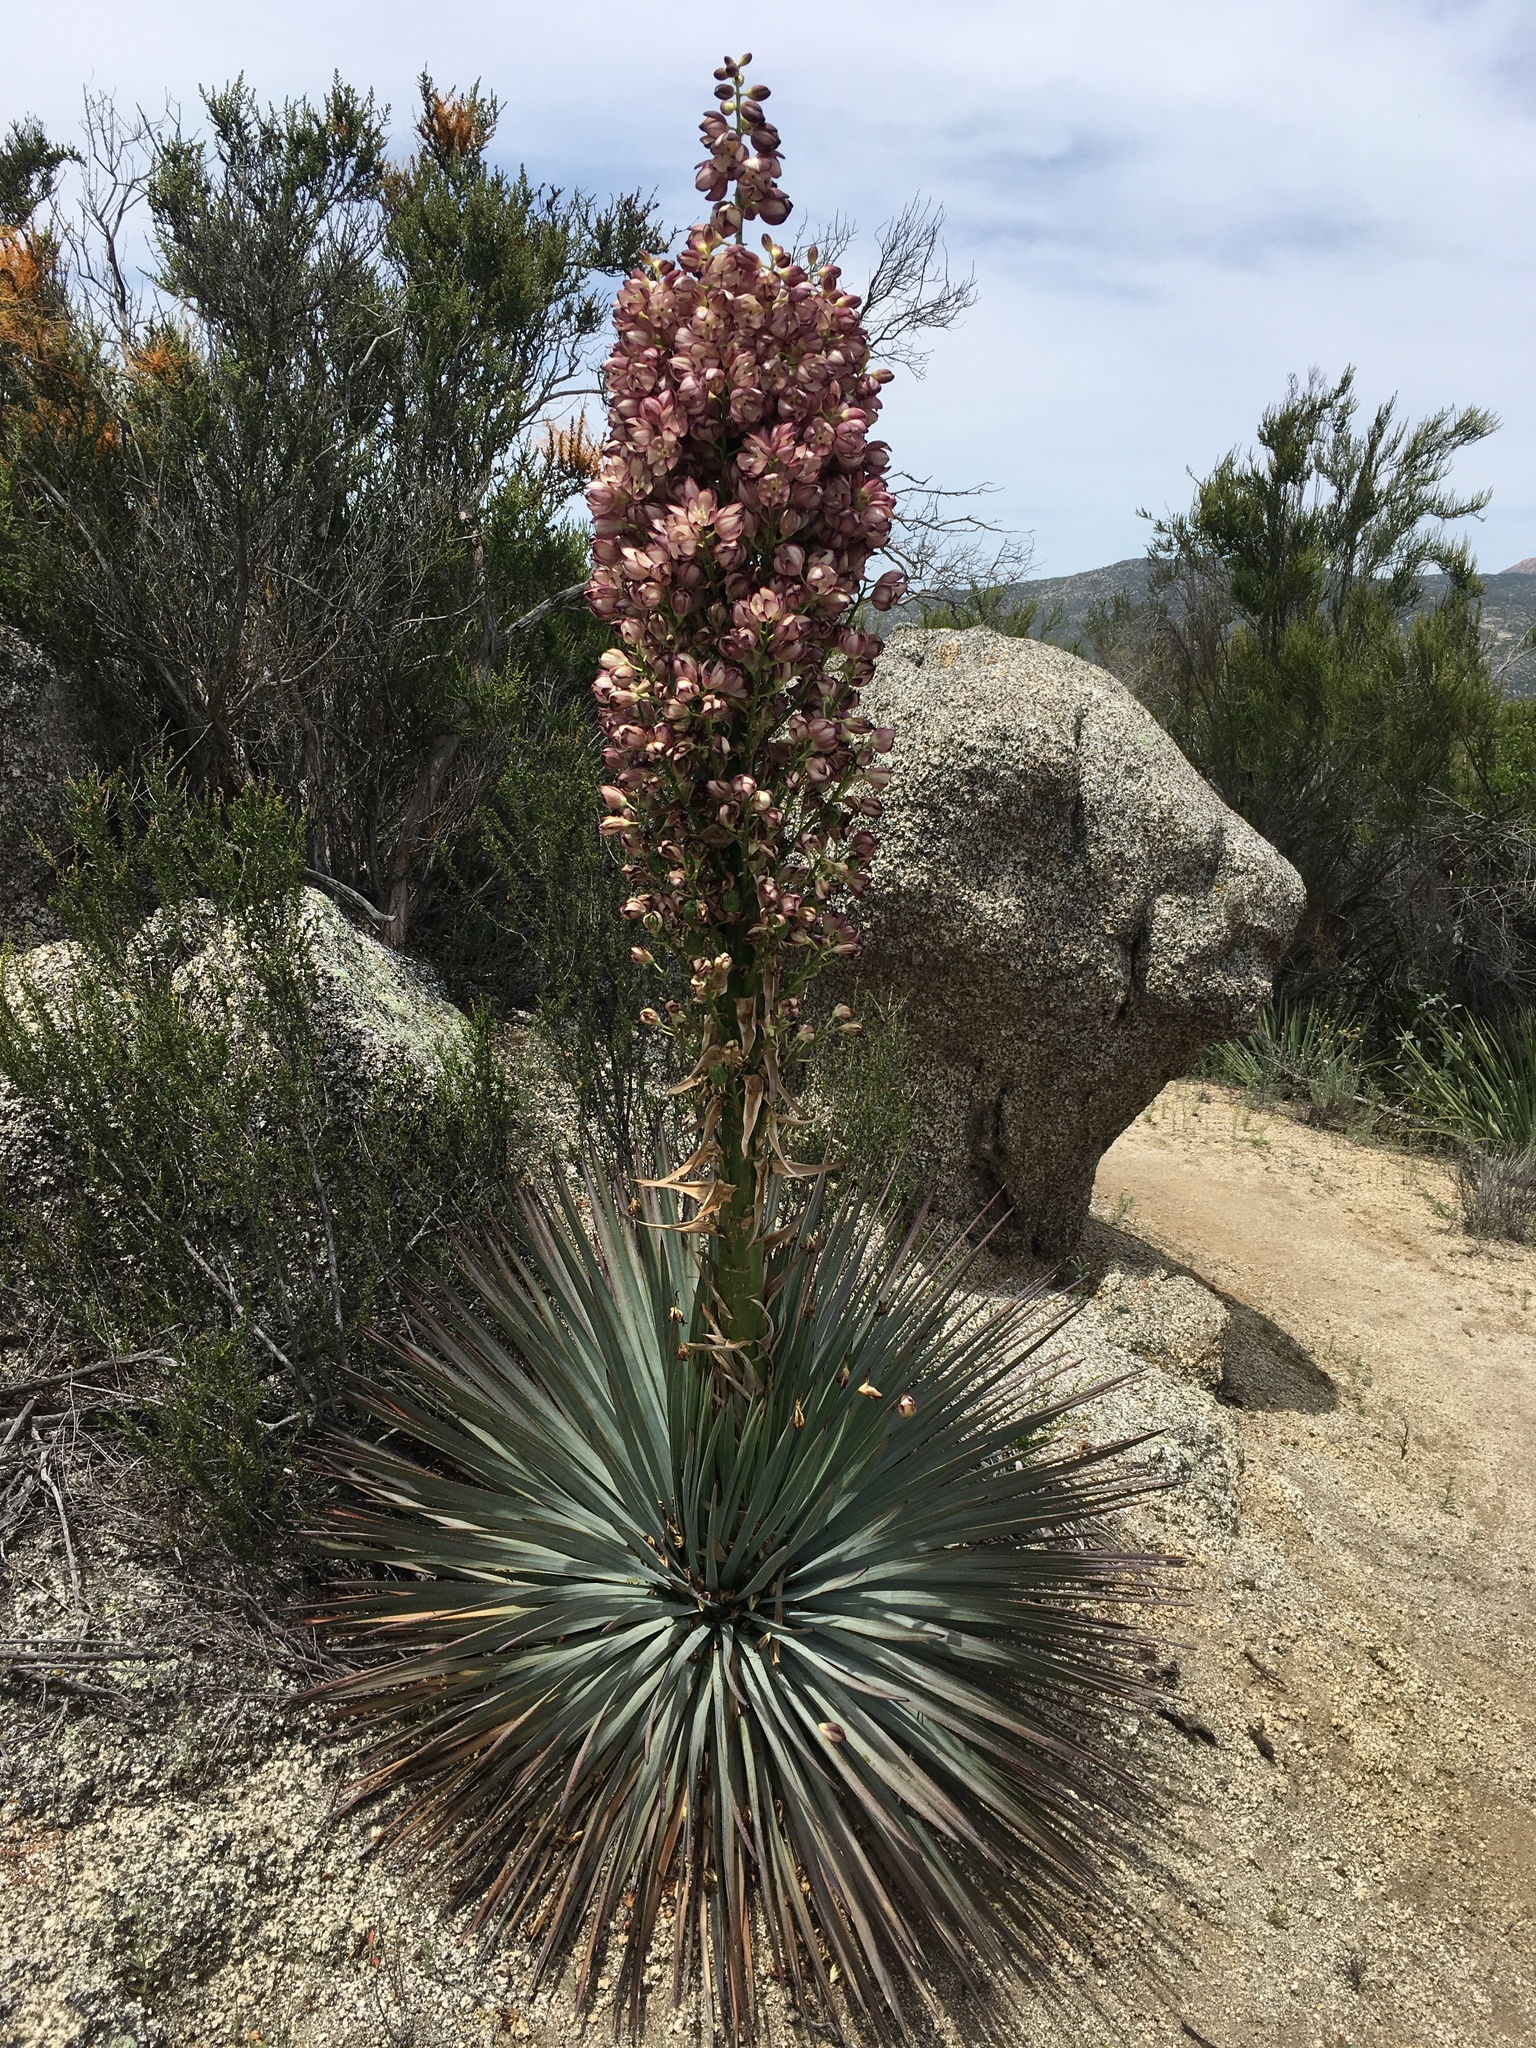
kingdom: Plantae
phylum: Tracheophyta
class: Liliopsida
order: Asparagales
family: Asparagaceae
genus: Hesperoyucca
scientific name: Hesperoyucca whipplei
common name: Our lord's-candle
